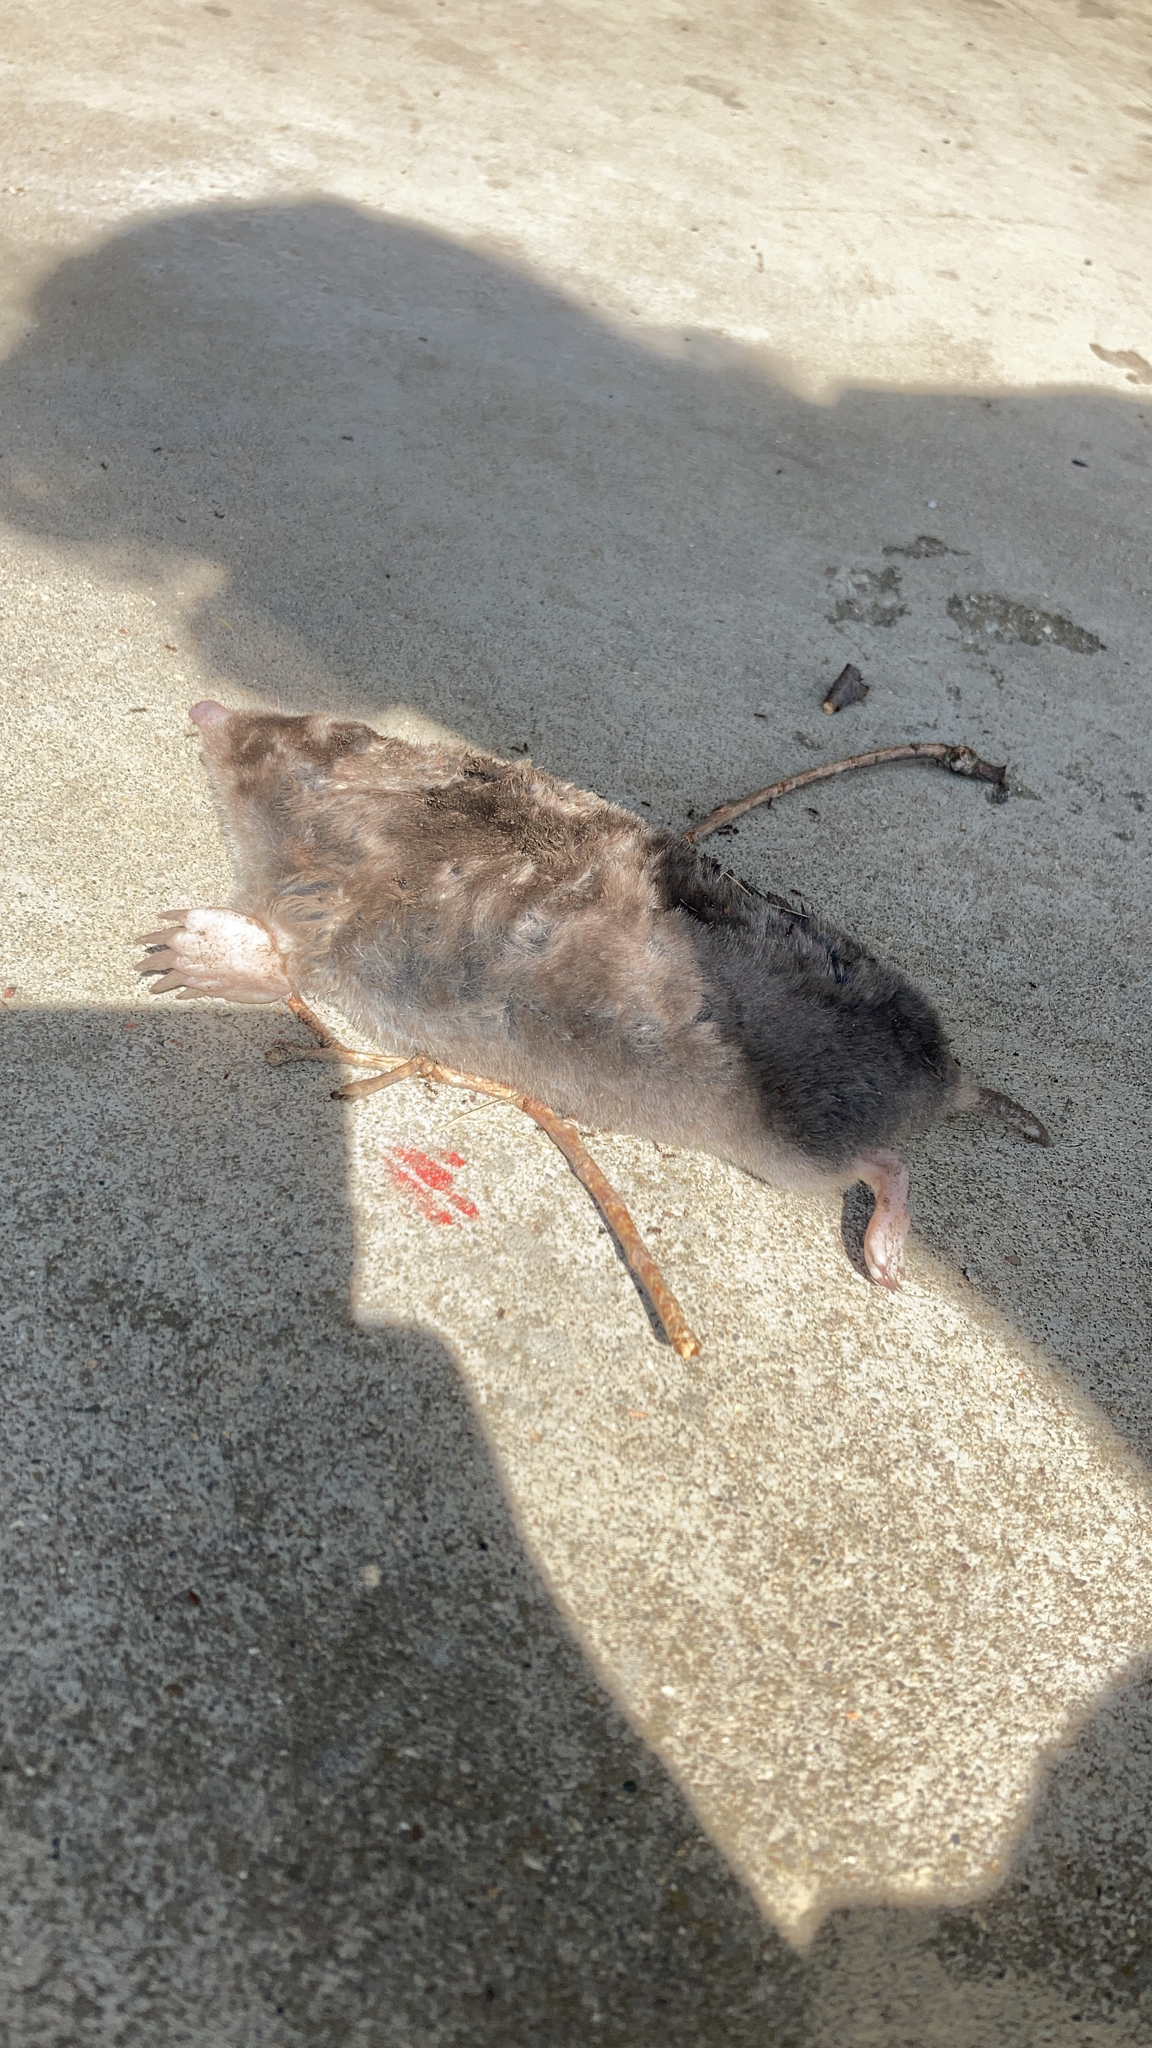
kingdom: Animalia
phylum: Chordata
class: Mammalia
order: Soricomorpha
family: Talpidae
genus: Scalopus
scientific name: Scalopus aquaticus
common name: Eastern mole
